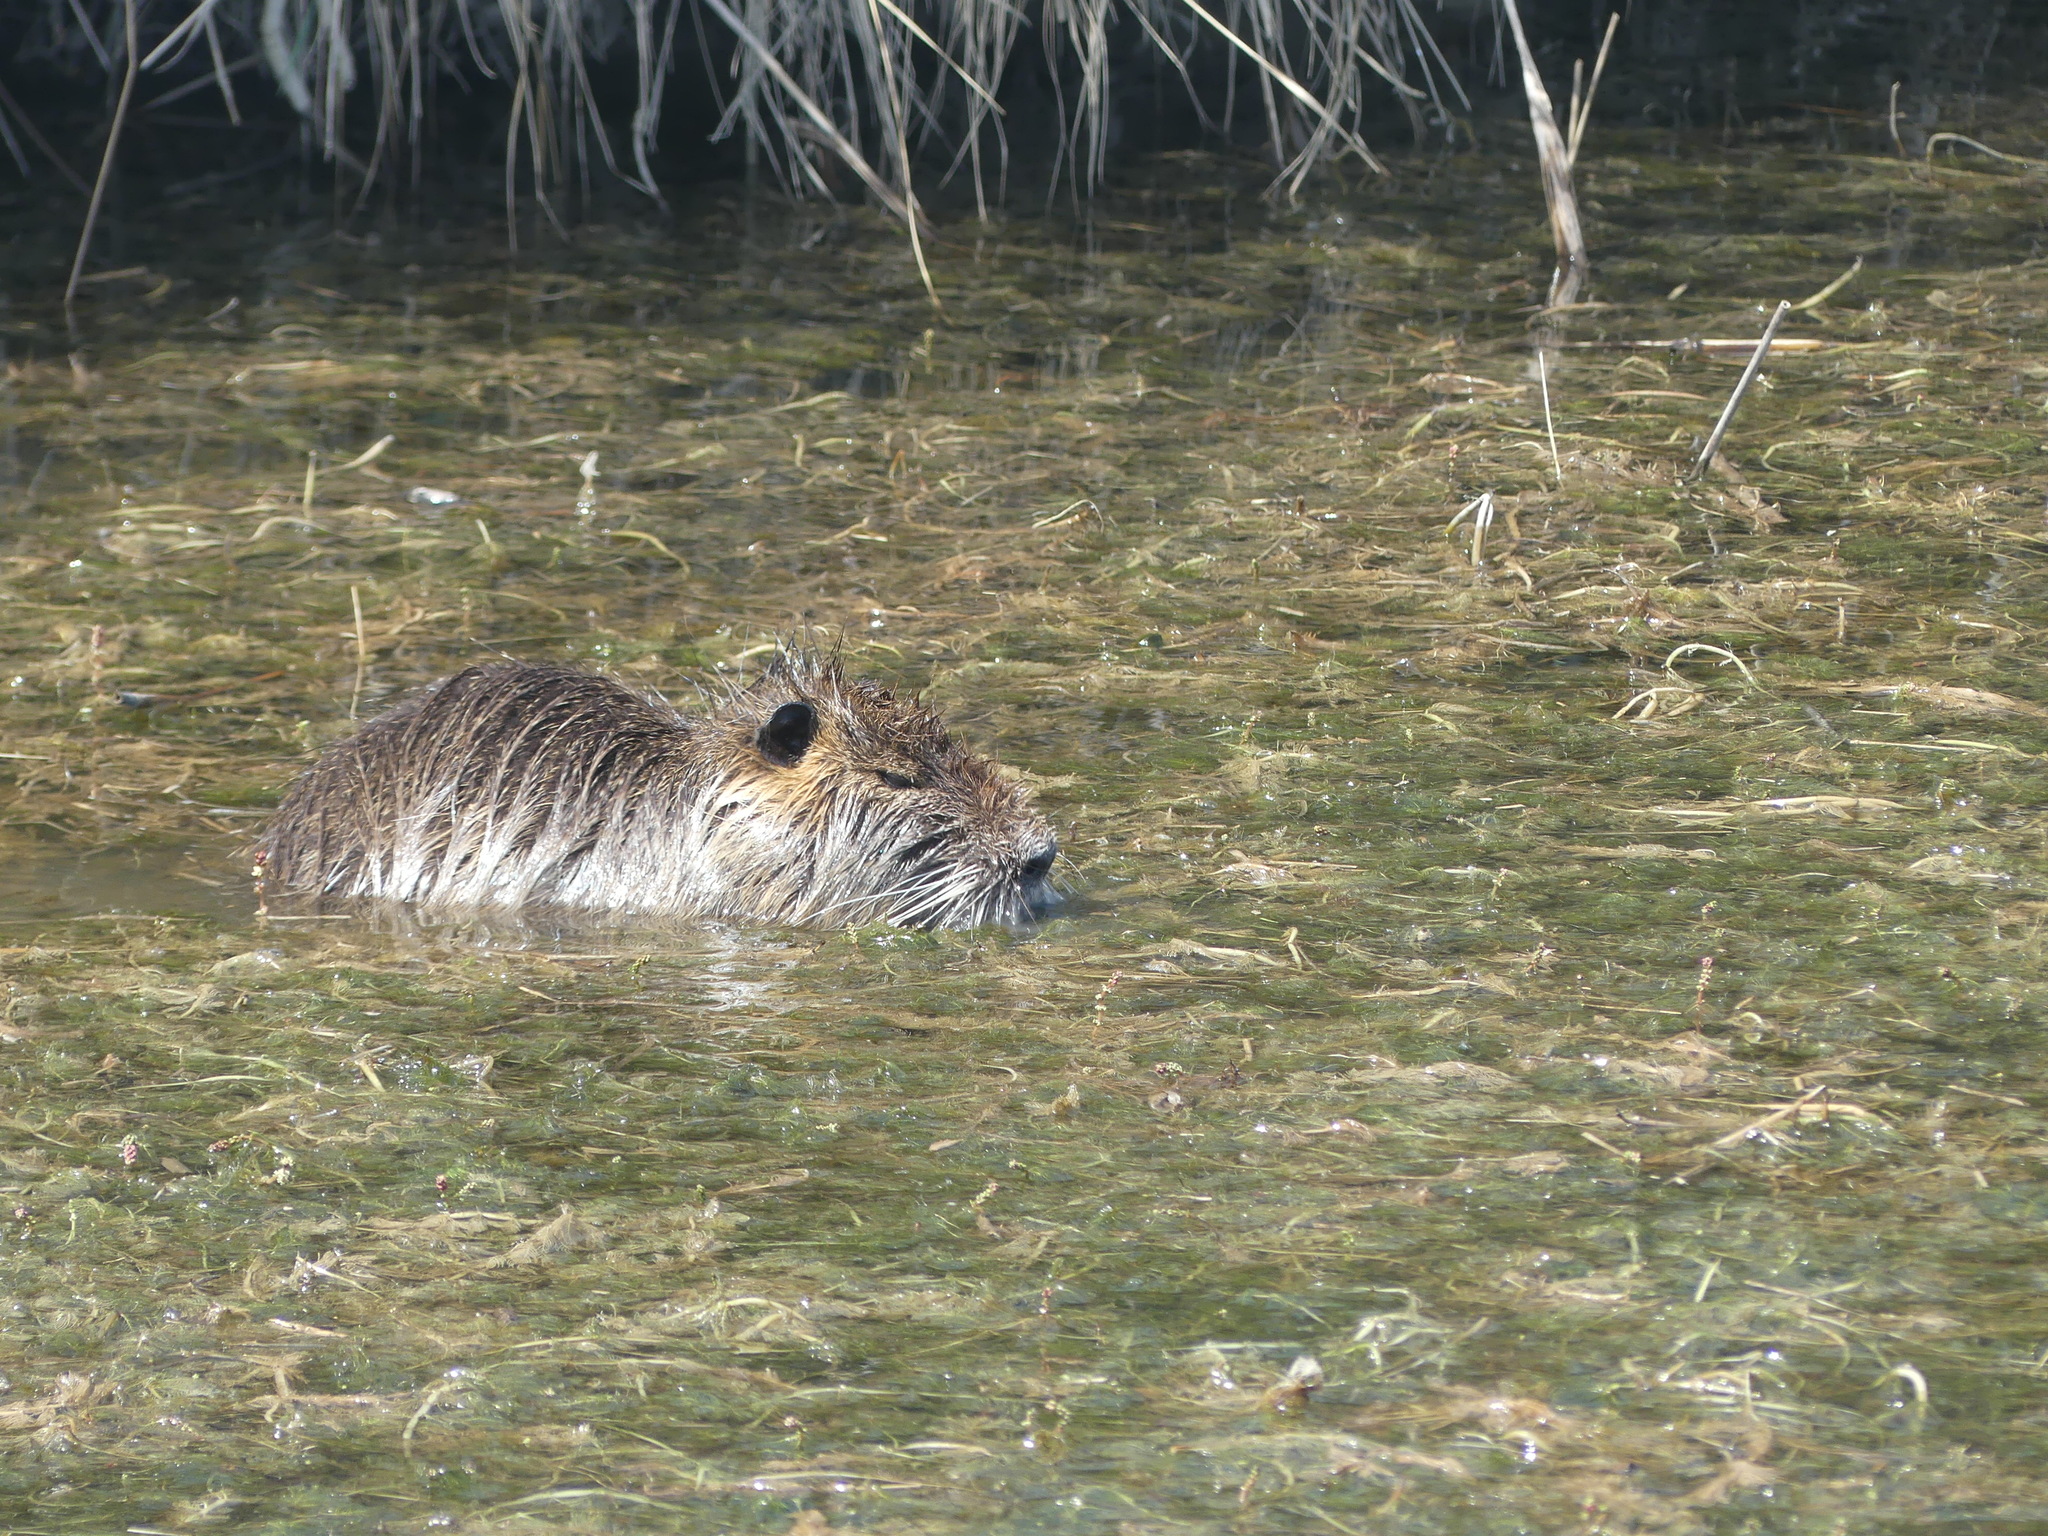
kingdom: Animalia
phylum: Chordata
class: Mammalia
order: Rodentia
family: Myocastoridae
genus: Myocastor
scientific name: Myocastor coypus
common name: Coypu
